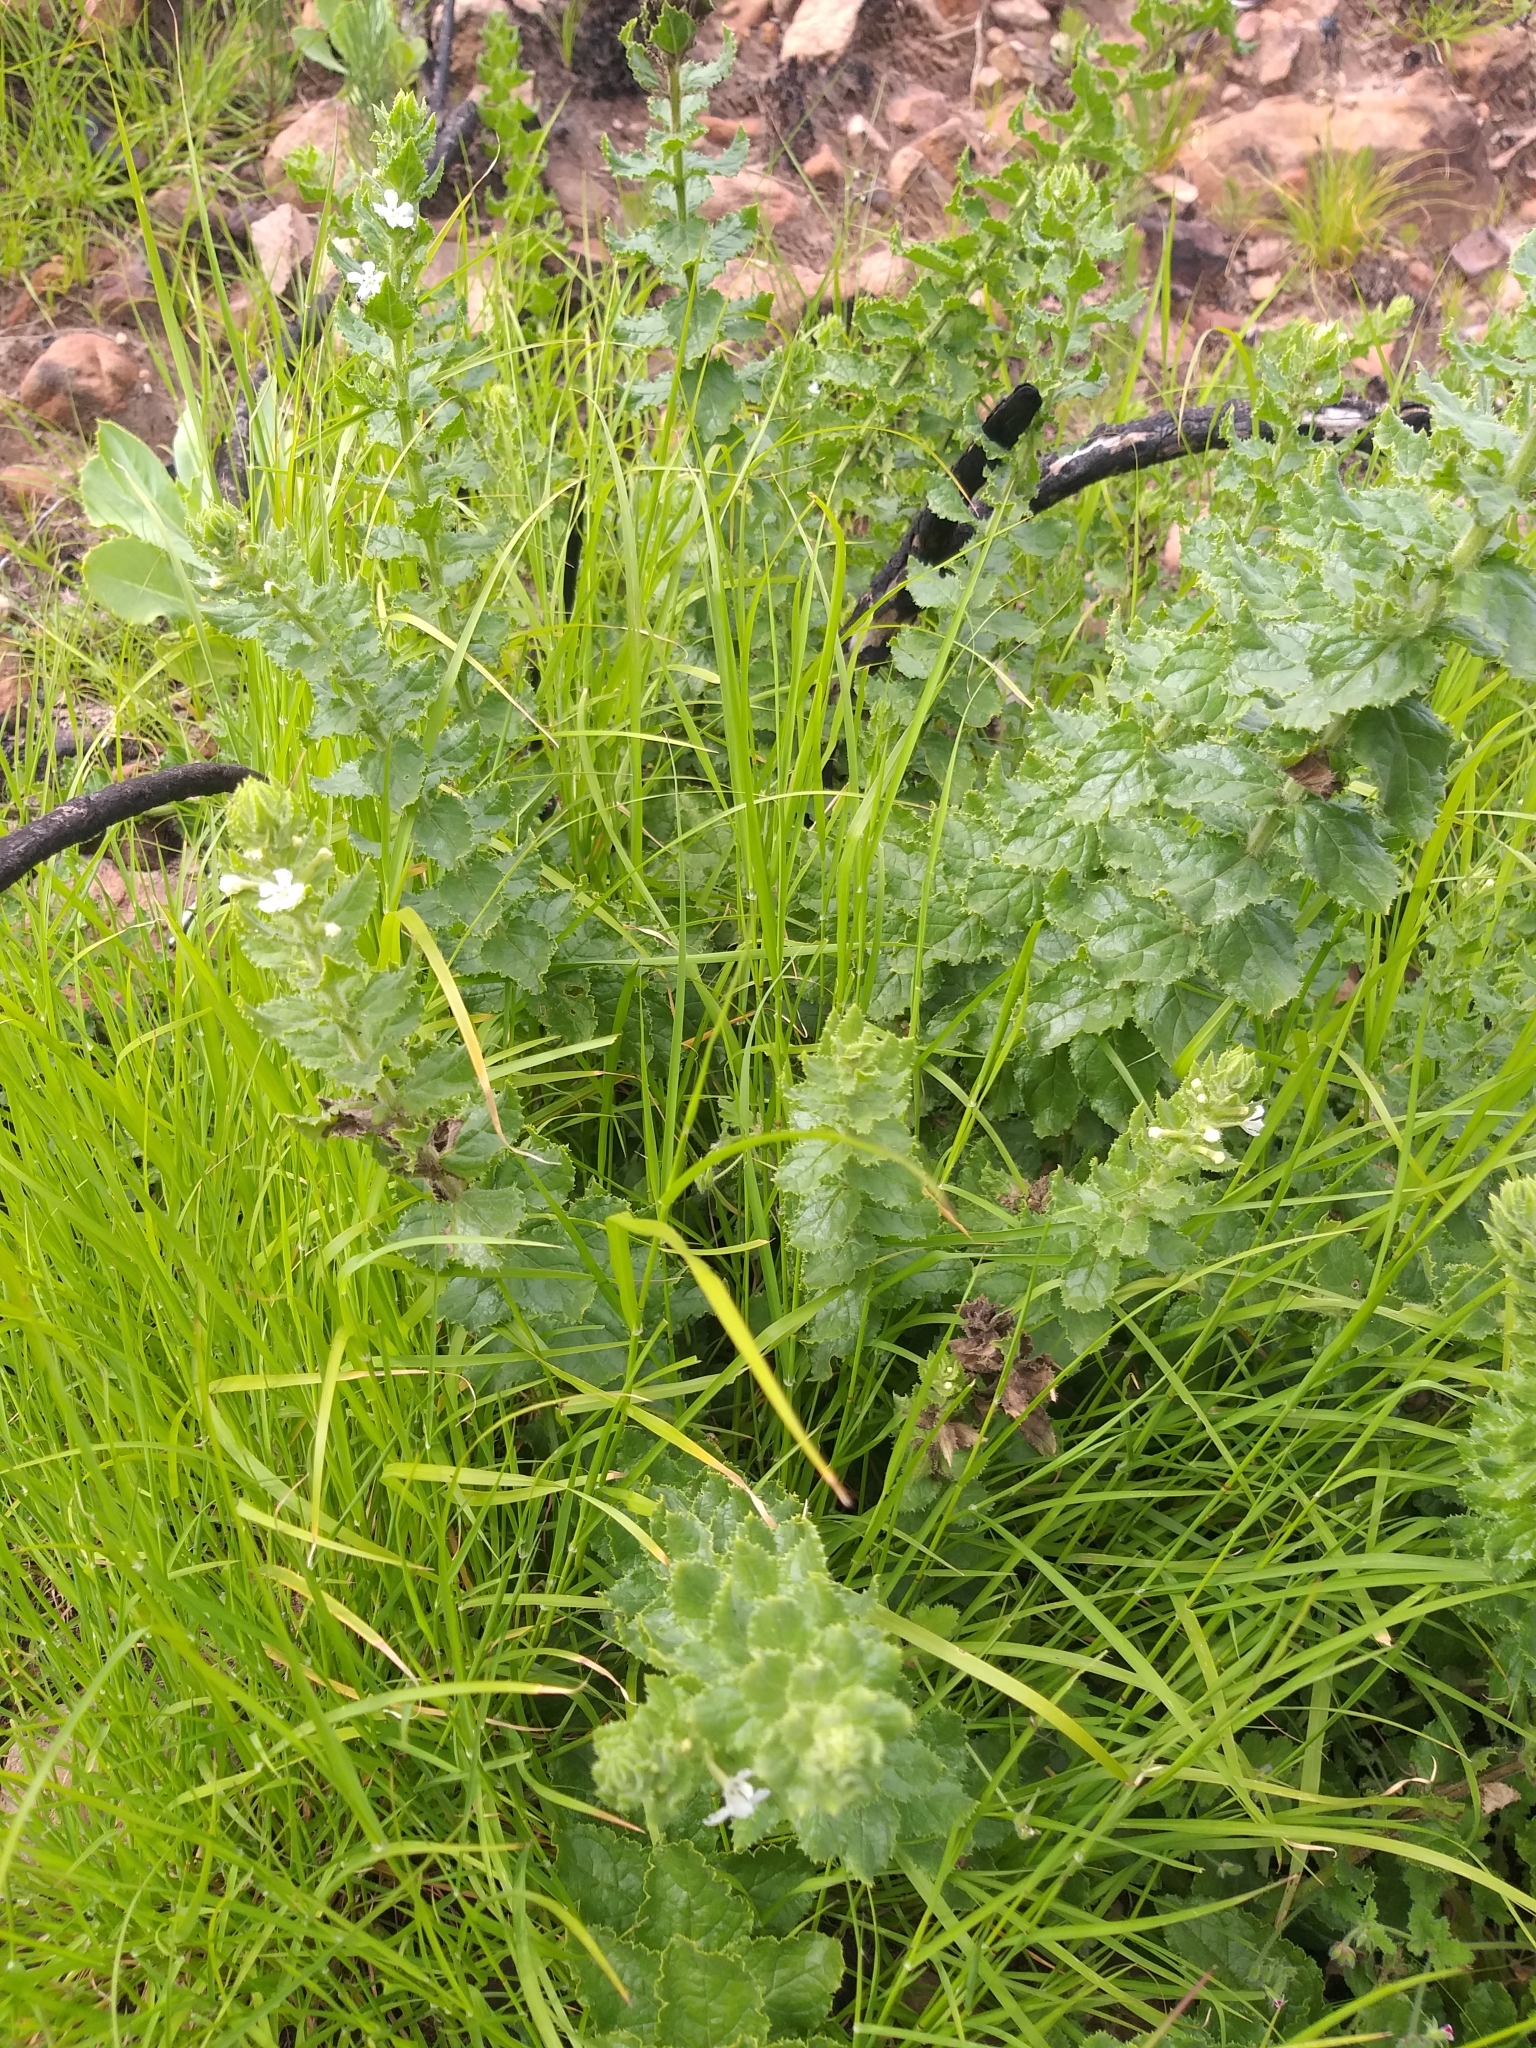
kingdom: Plantae
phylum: Tracheophyta
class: Magnoliopsida
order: Lamiales
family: Scrophulariaceae
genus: Oftia
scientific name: Oftia africana
